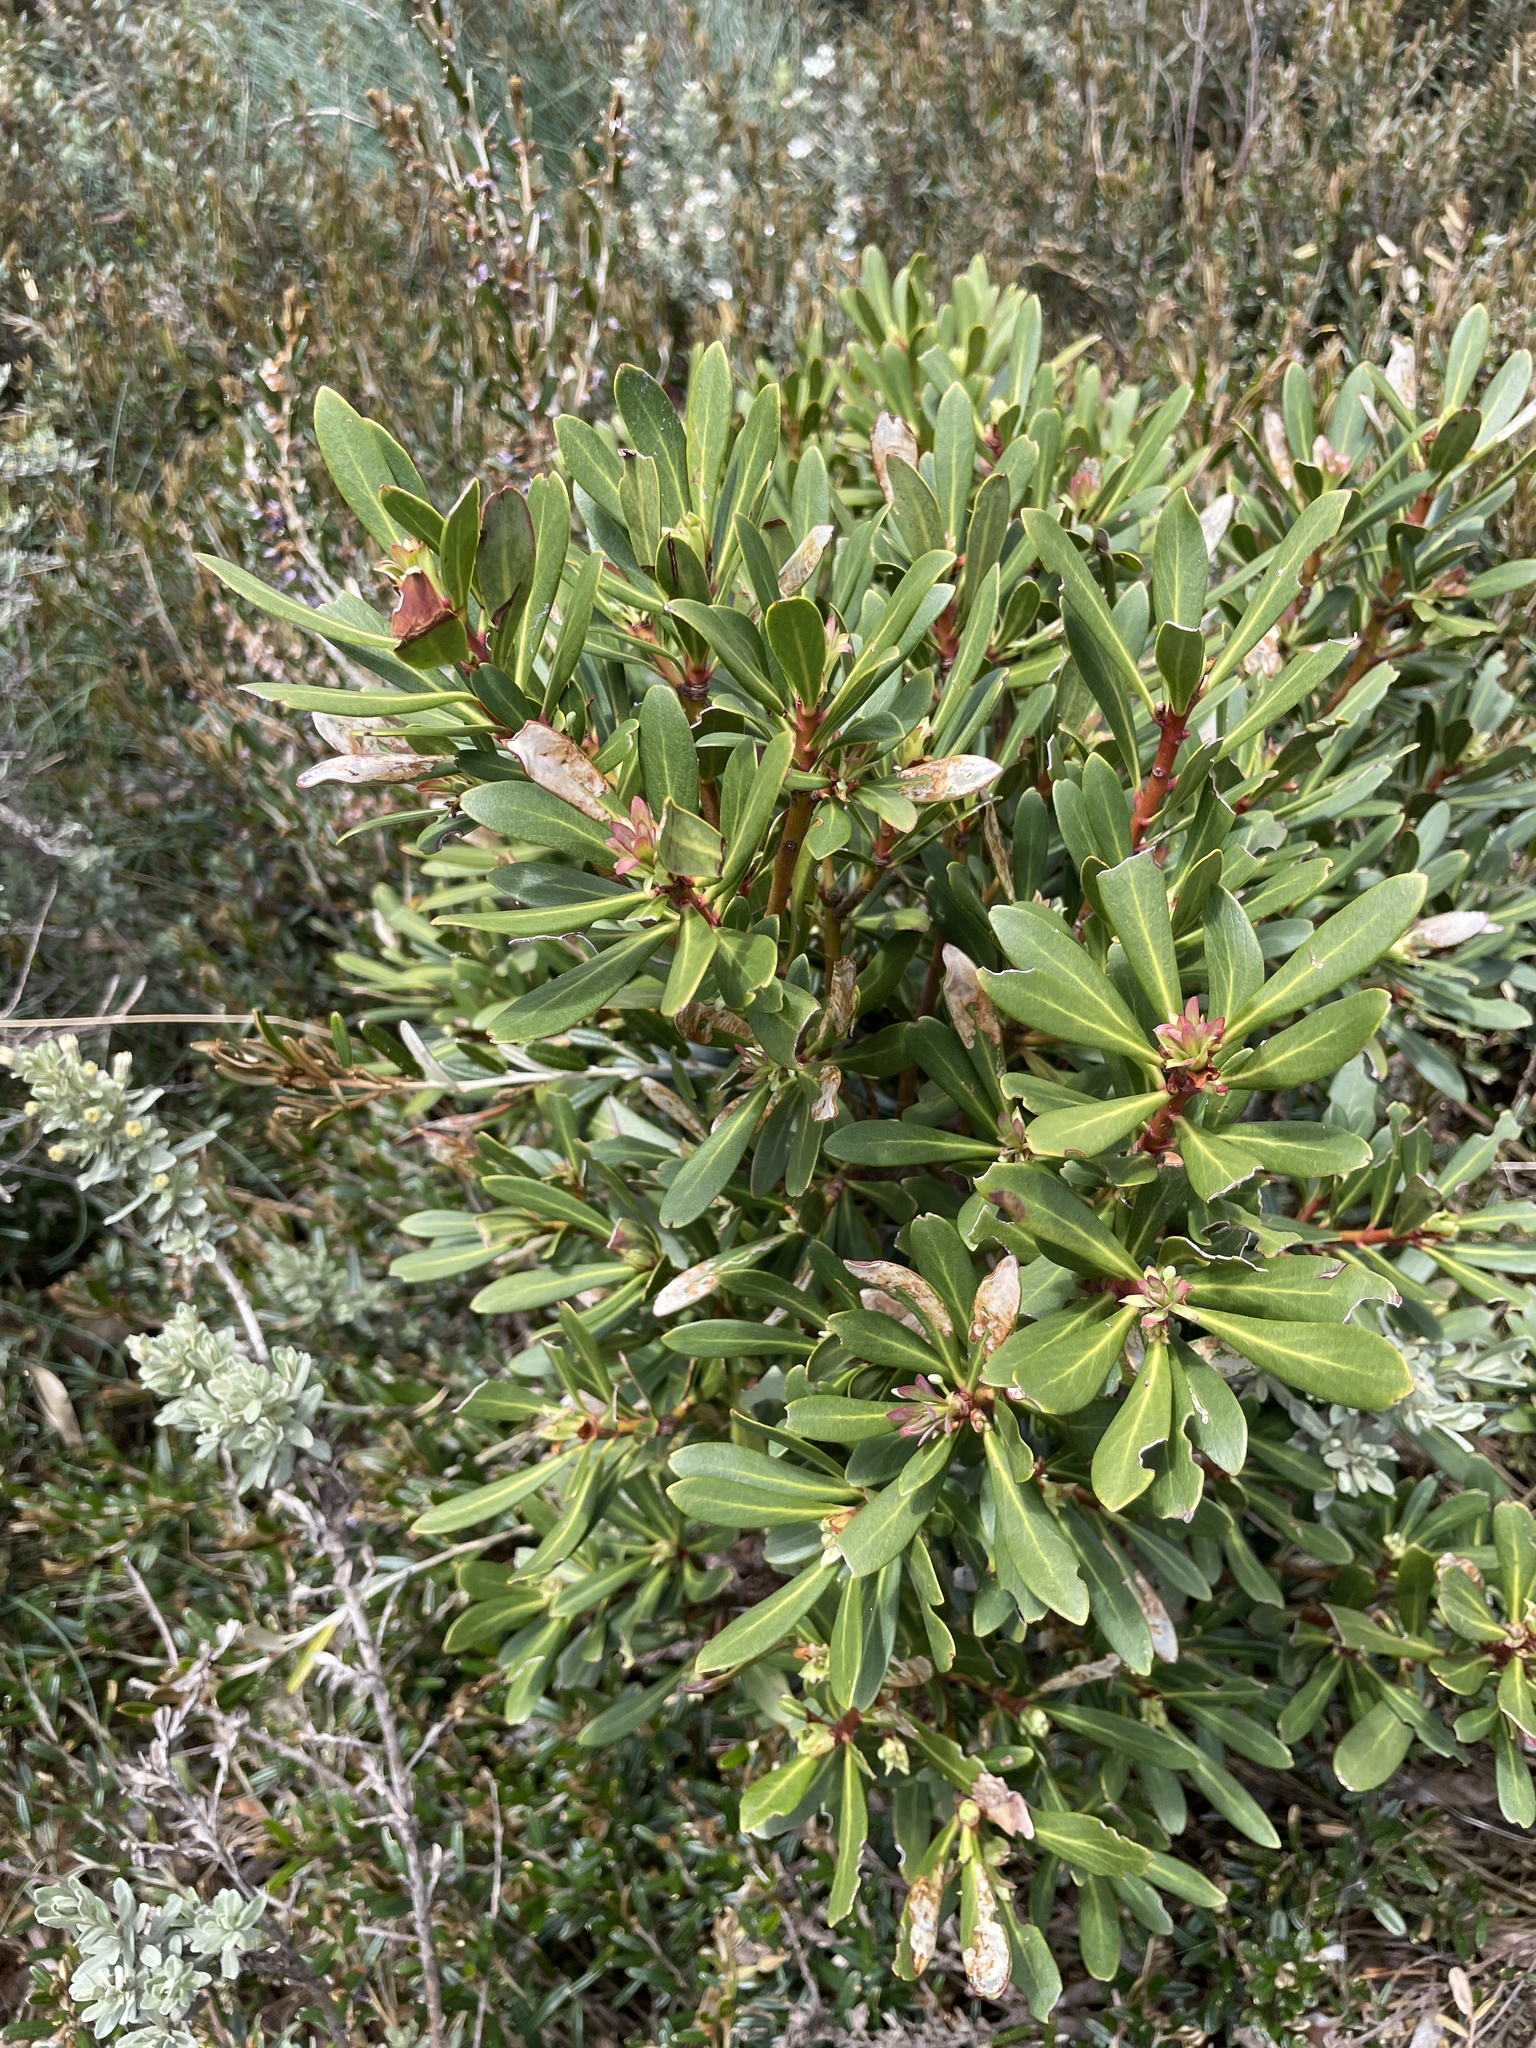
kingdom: Plantae
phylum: Tracheophyta
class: Magnoliopsida
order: Canellales
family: Winteraceae
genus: Drimys
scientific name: Drimys xerophila
